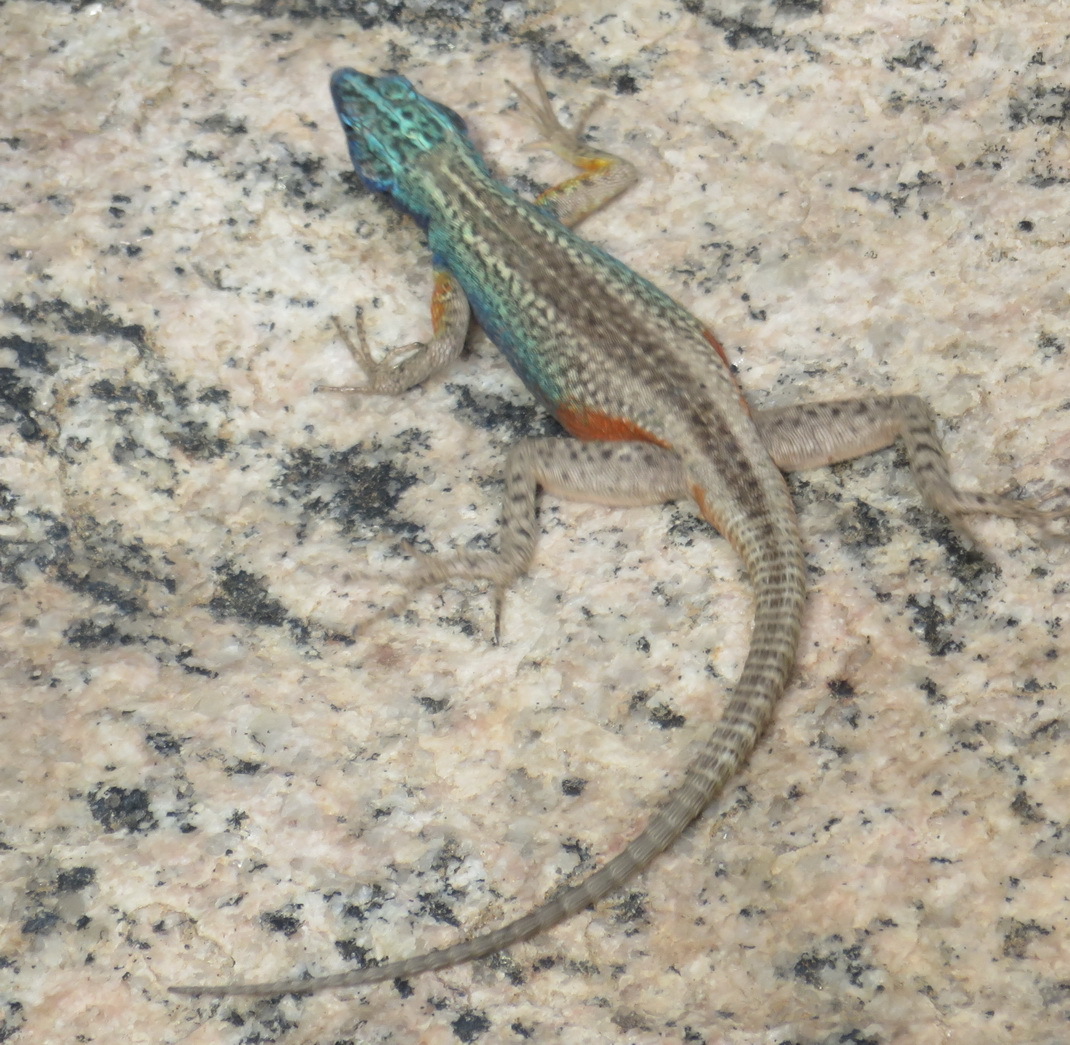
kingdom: Animalia
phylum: Chordata
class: Squamata
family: Cordylidae
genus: Platysaurus
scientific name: Platysaurus broadleyi
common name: Augrabies flat lizard
